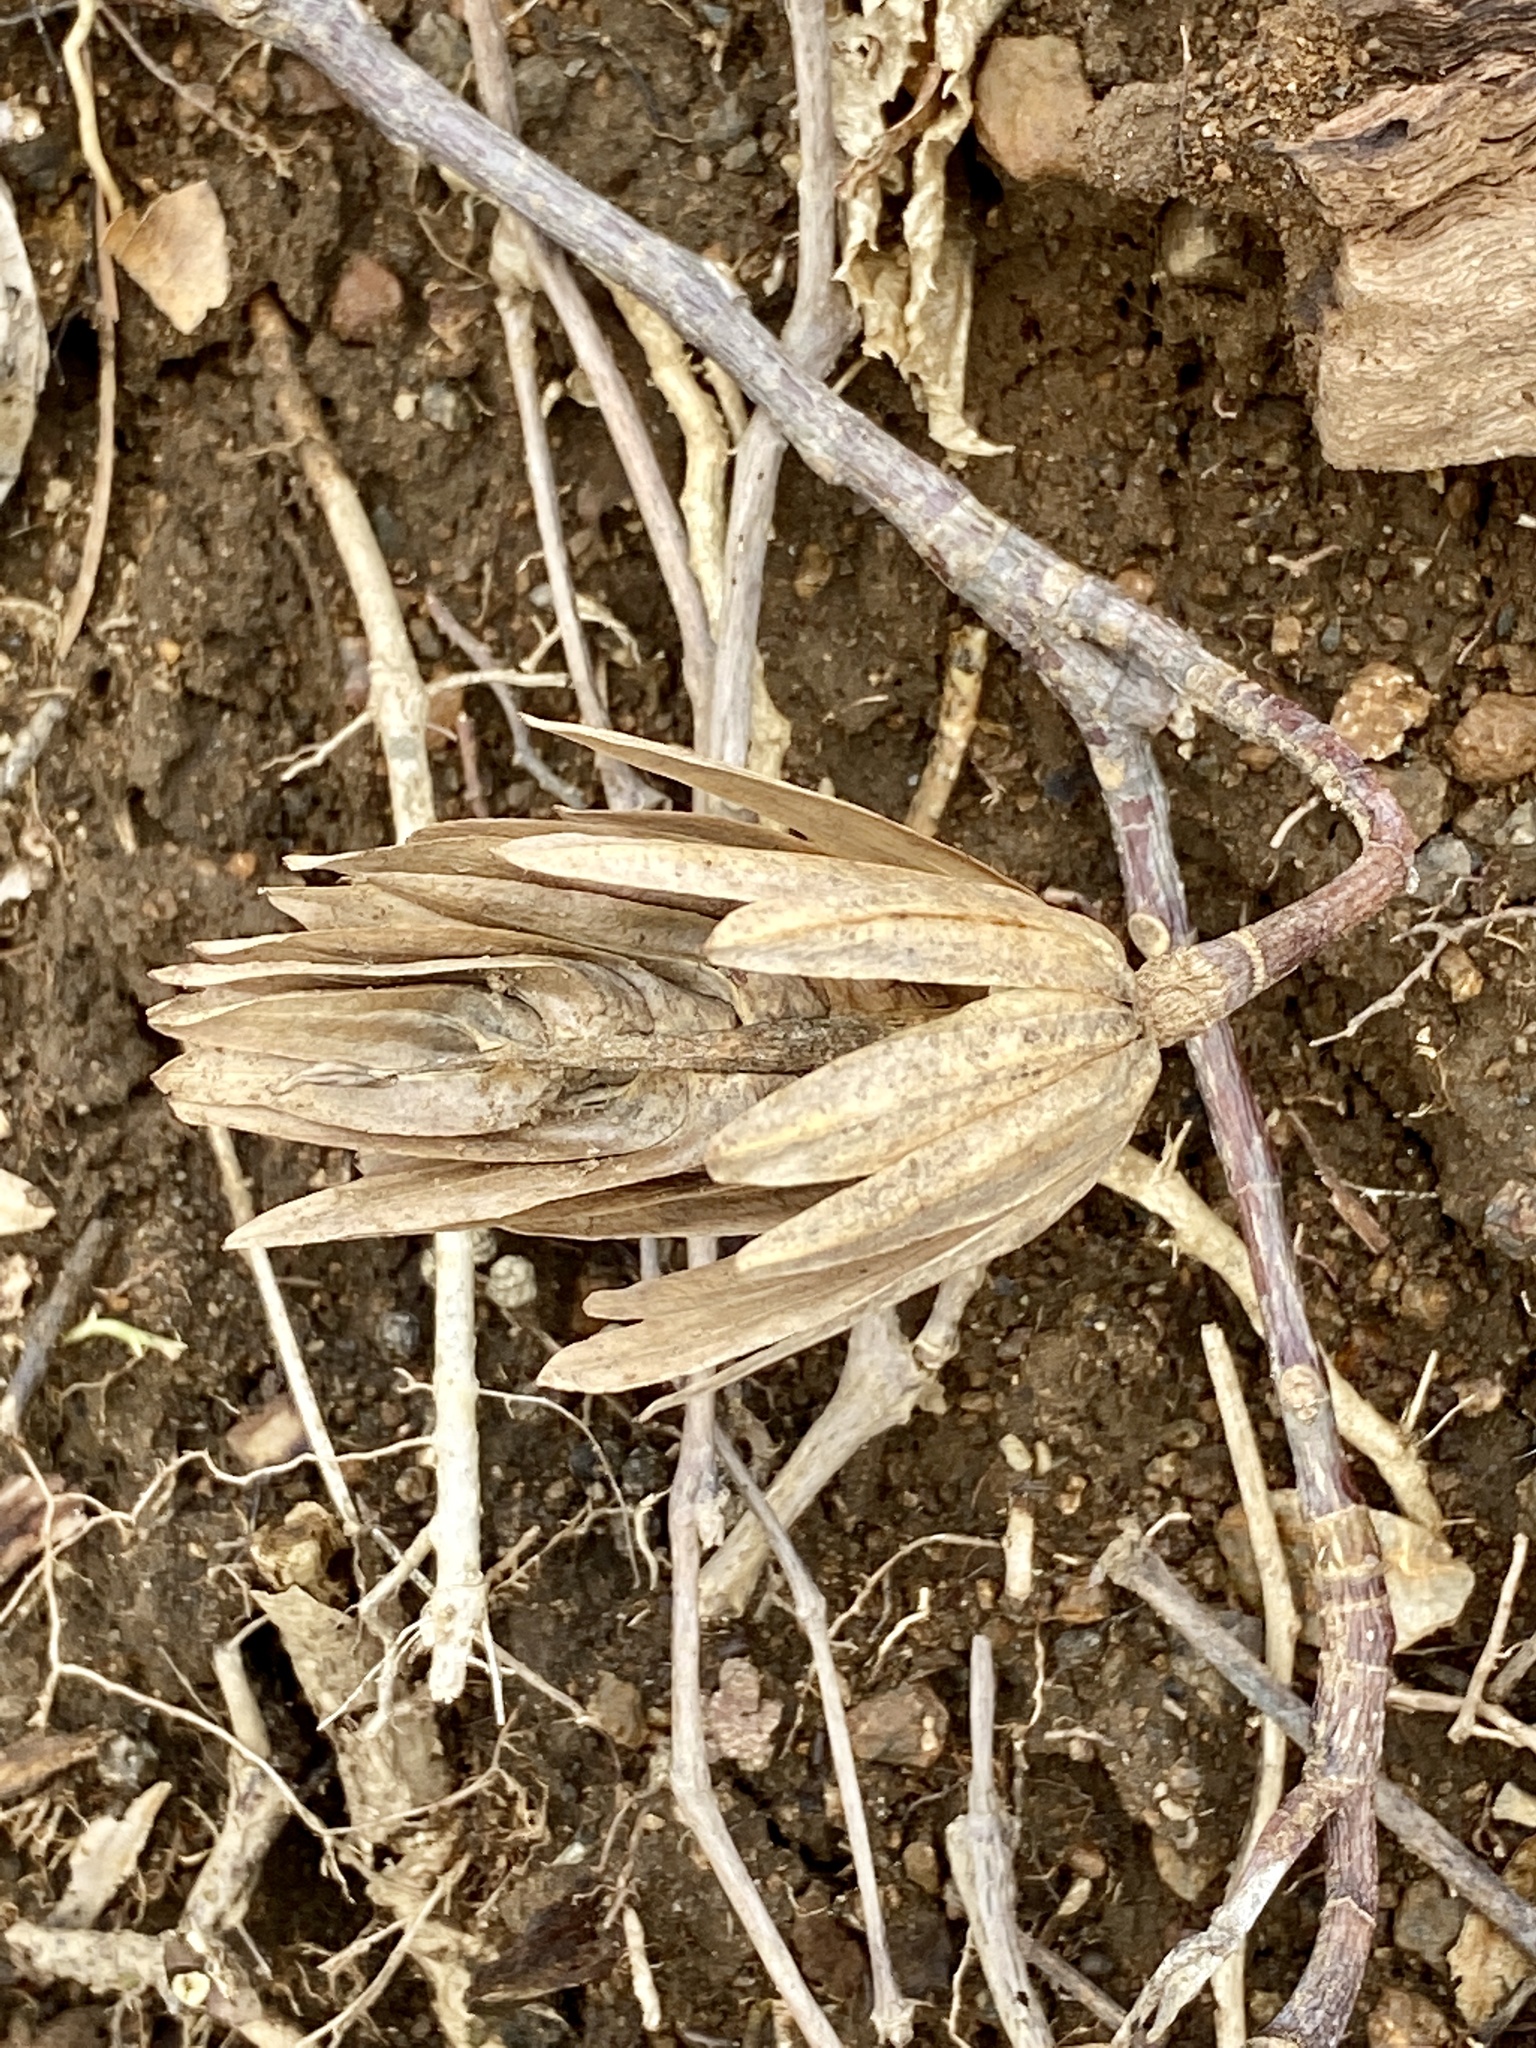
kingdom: Plantae
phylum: Tracheophyta
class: Magnoliopsida
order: Magnoliales
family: Magnoliaceae
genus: Liriodendron
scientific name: Liriodendron tulipifera
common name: Tulip tree
